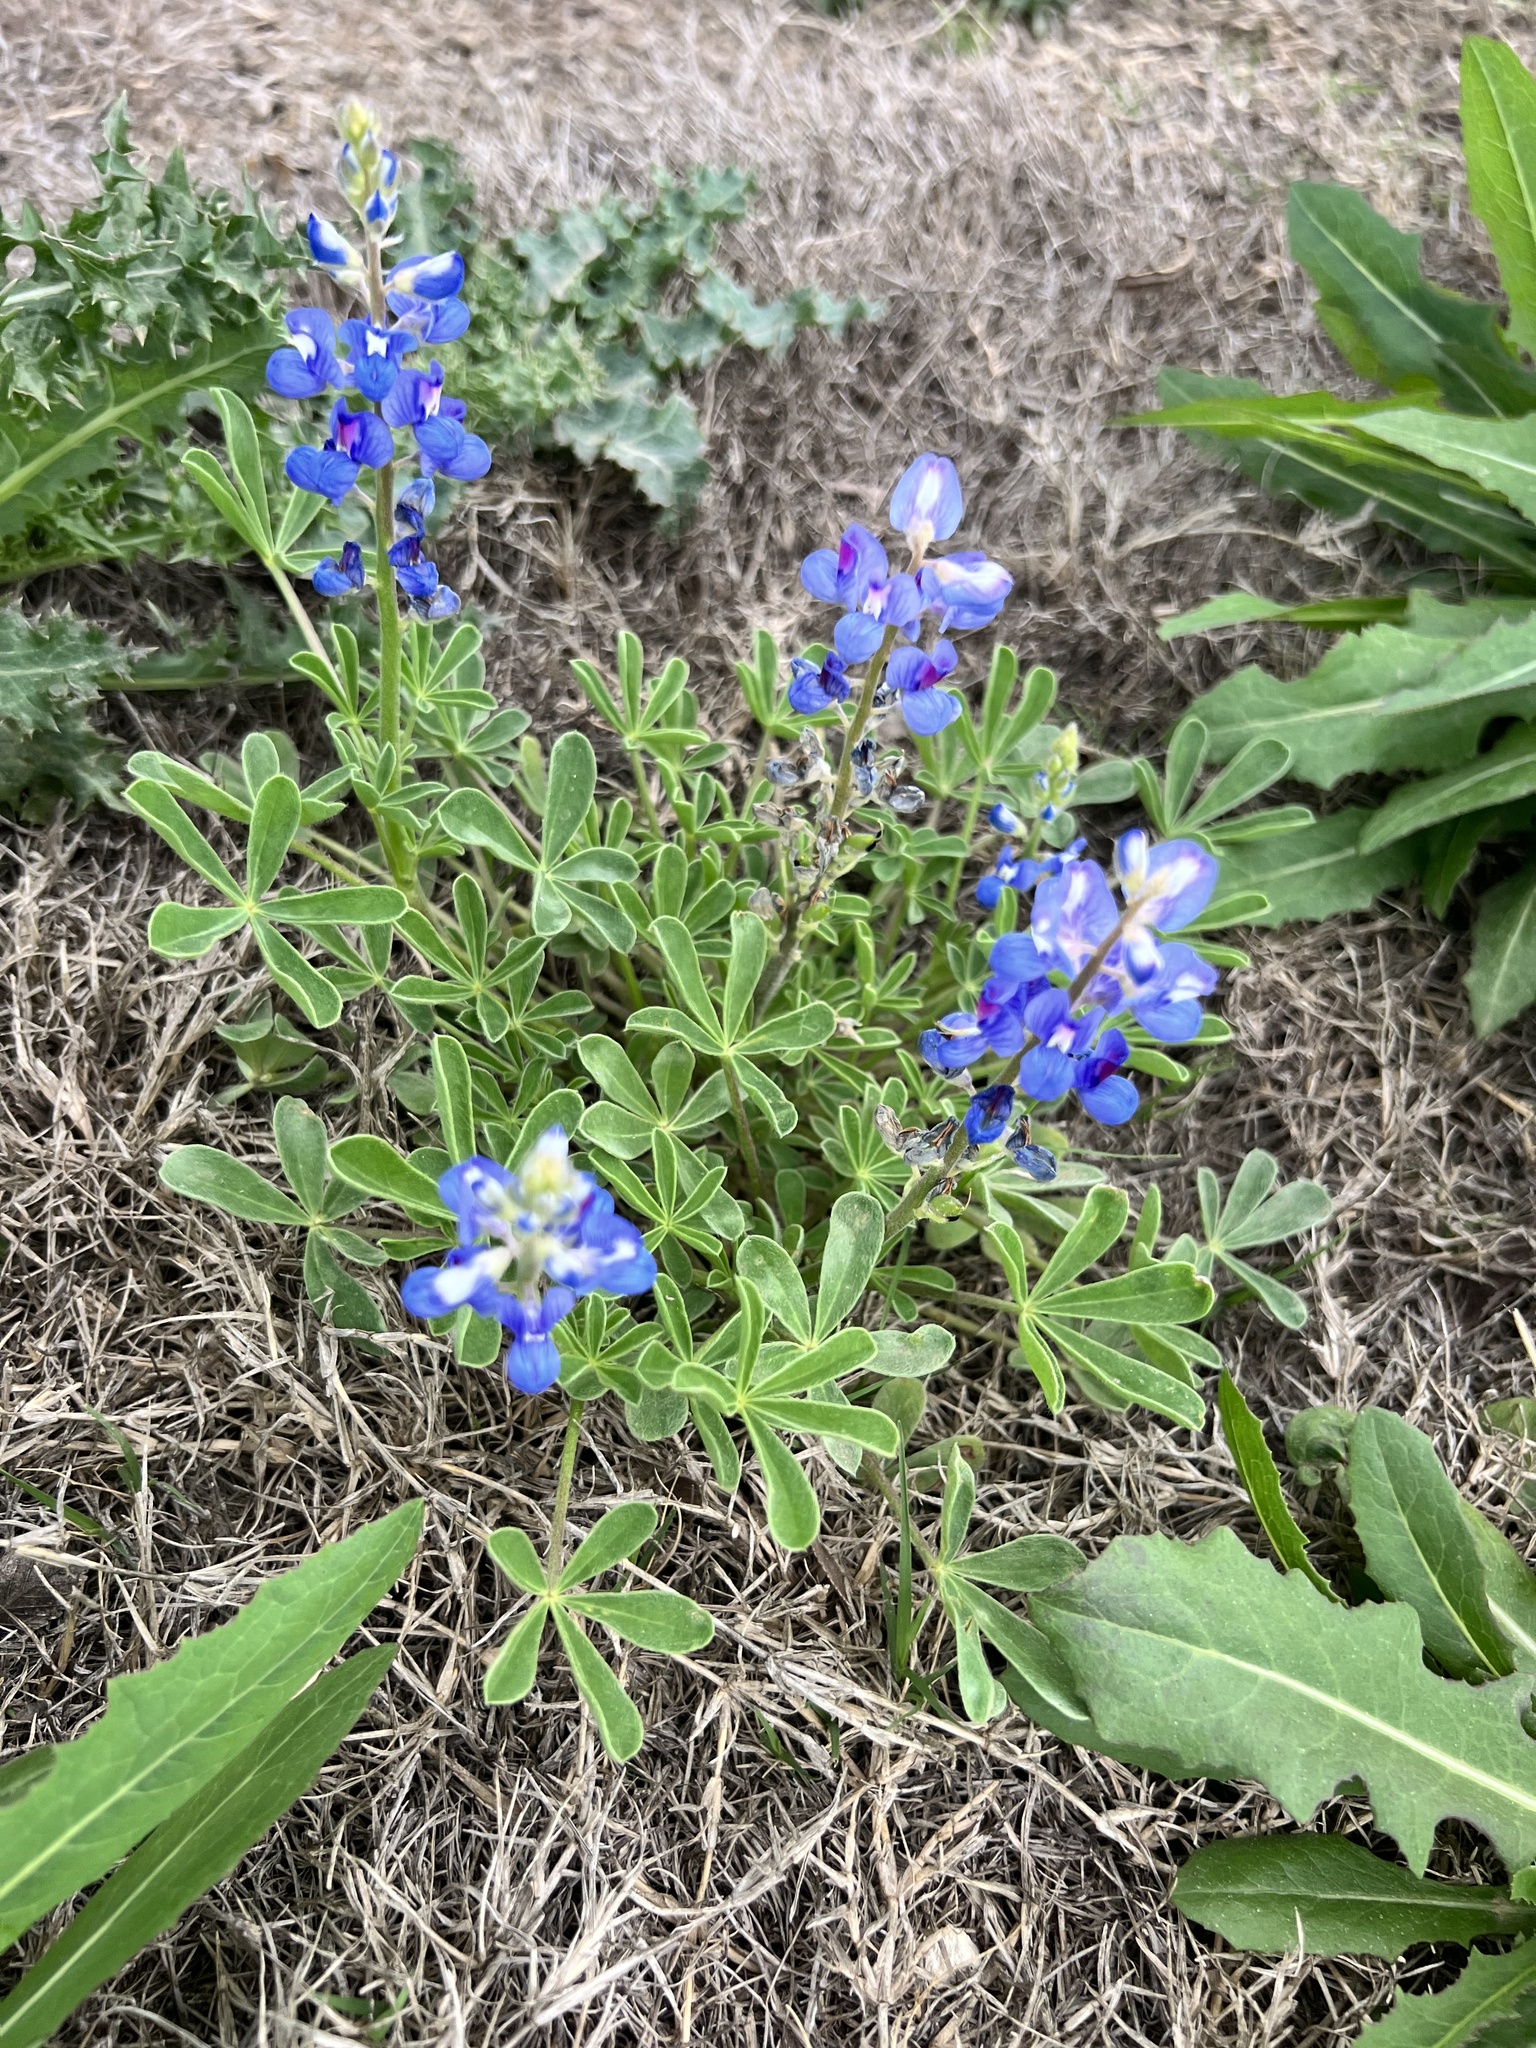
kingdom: Plantae
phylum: Tracheophyta
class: Magnoliopsida
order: Fabales
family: Fabaceae
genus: Lupinus
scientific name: Lupinus subcarnosus
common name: Texas bluebonnet
